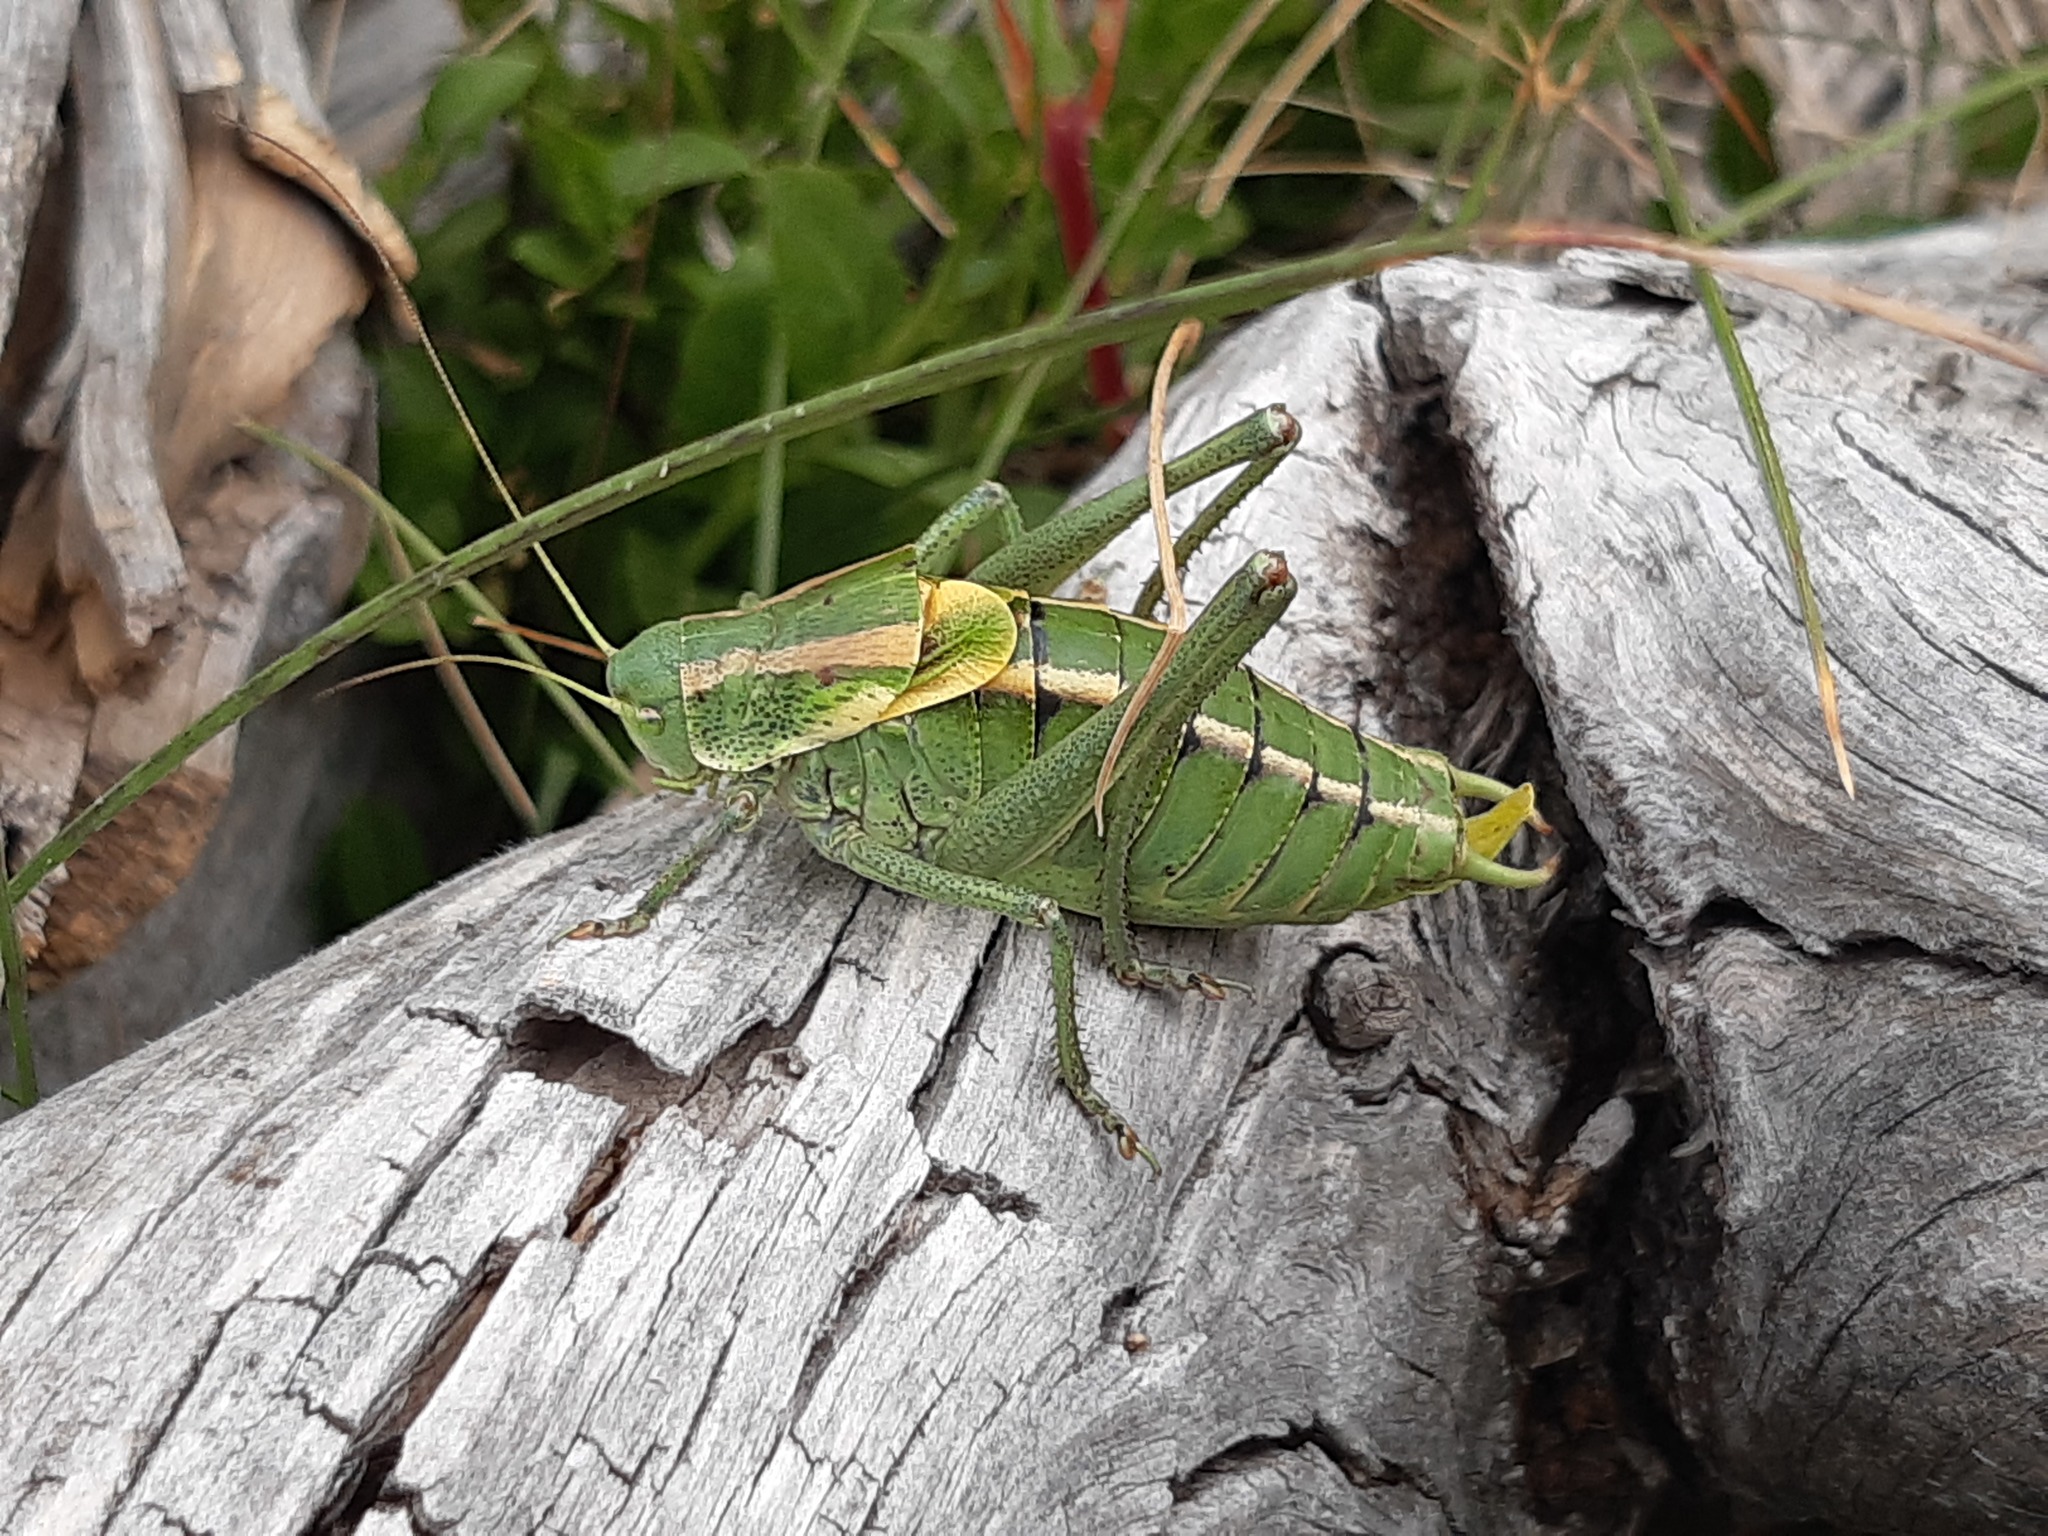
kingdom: Animalia
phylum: Arthropoda
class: Insecta
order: Orthoptera
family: Tettigoniidae
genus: Polysarcus
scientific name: Polysarcus denticauda
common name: Large saw-tailed bush-cricket
